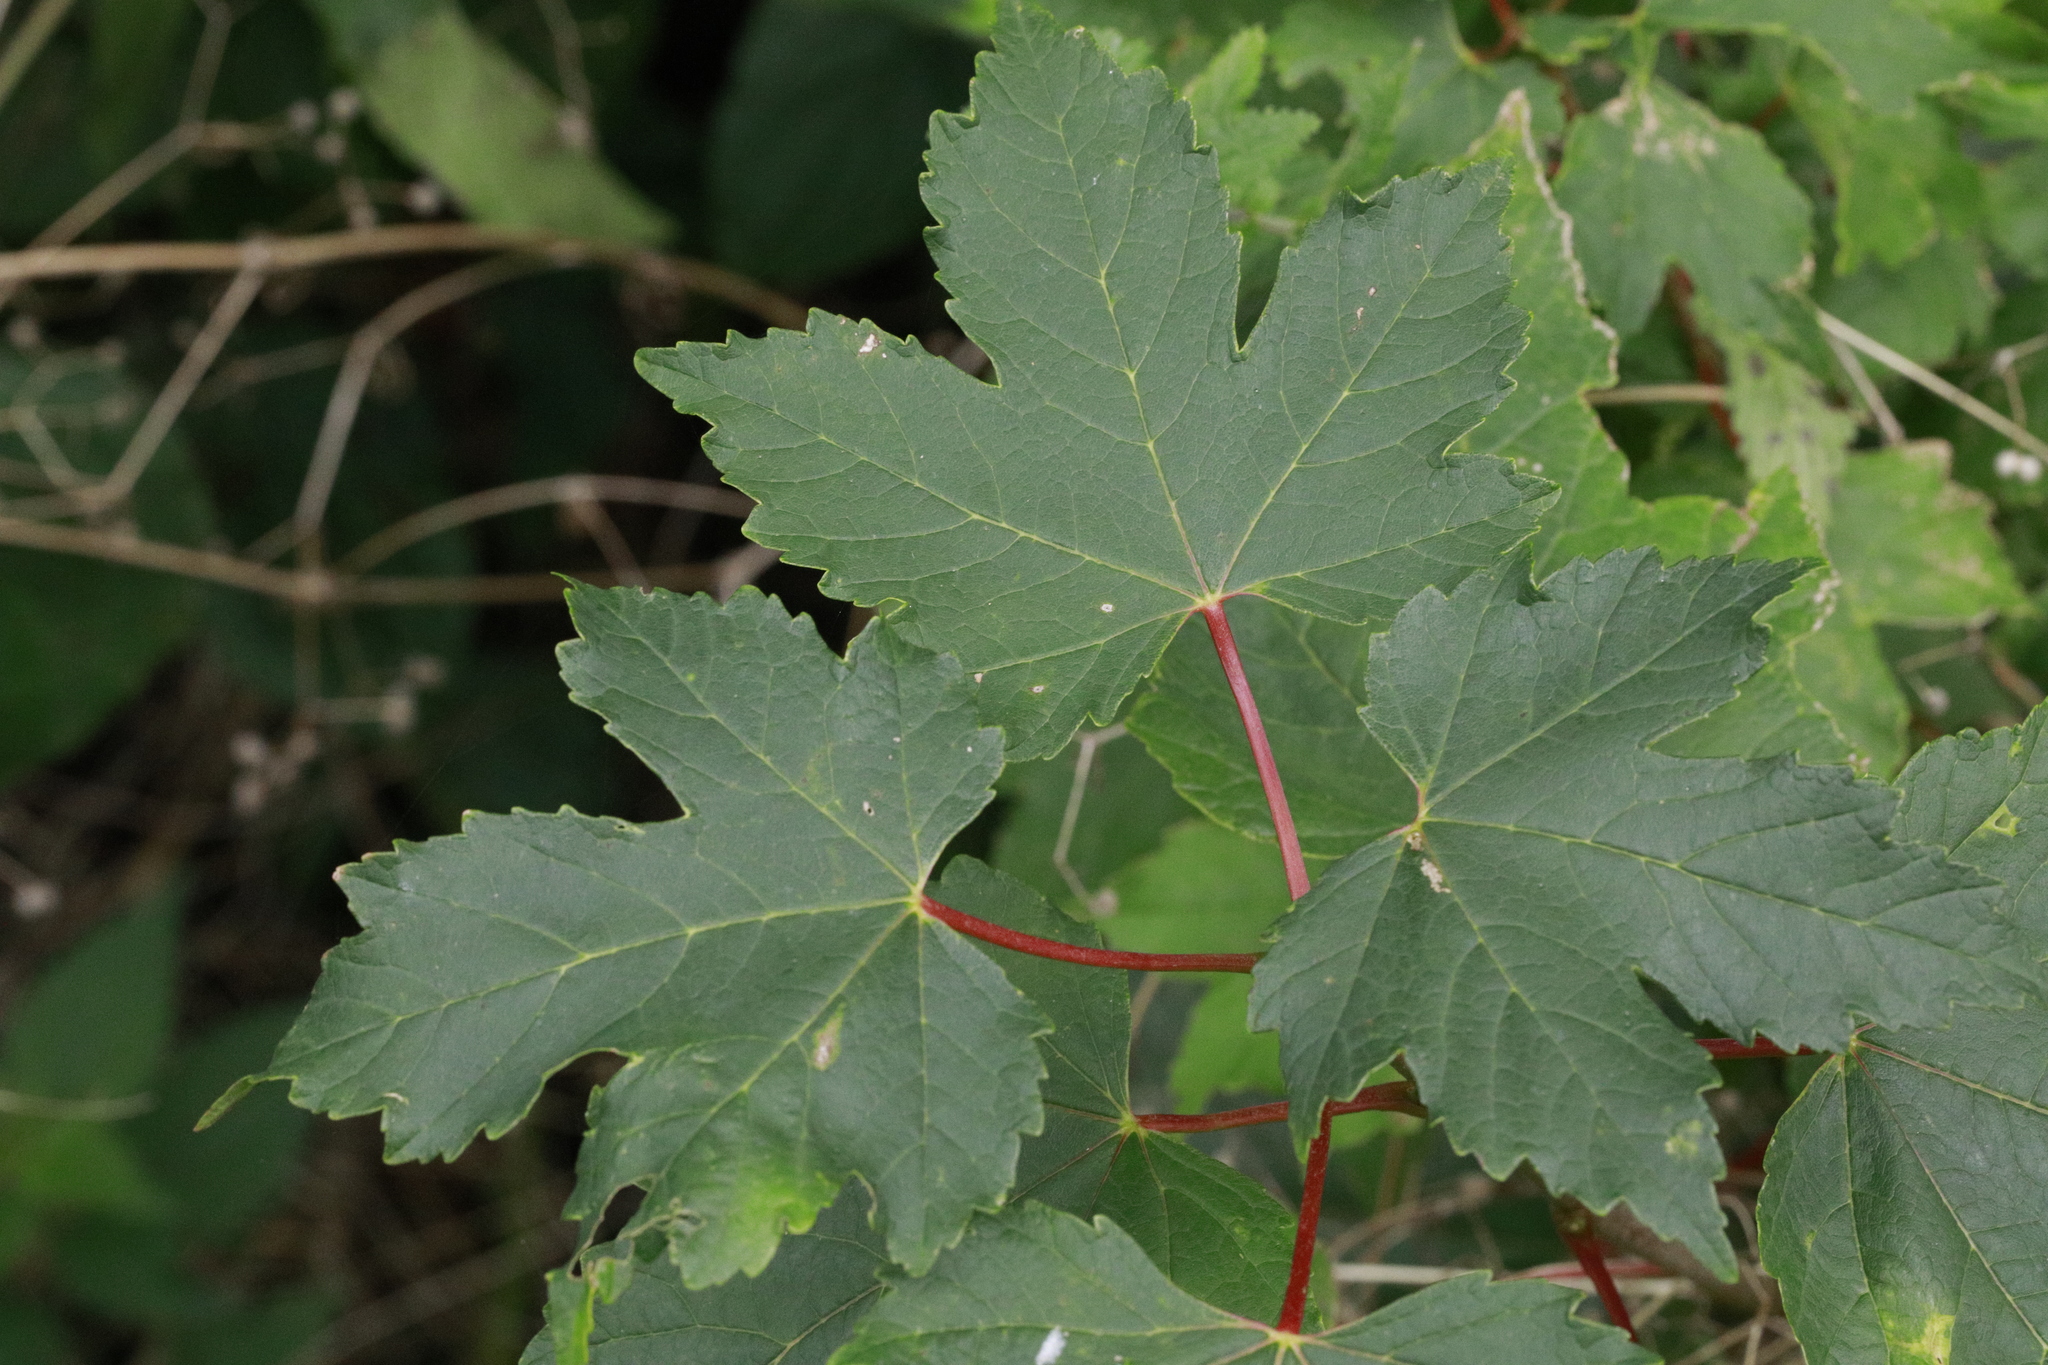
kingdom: Plantae
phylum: Tracheophyta
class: Magnoliopsida
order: Sapindales
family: Sapindaceae
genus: Acer
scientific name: Acer pseudoplatanus
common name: Sycamore
